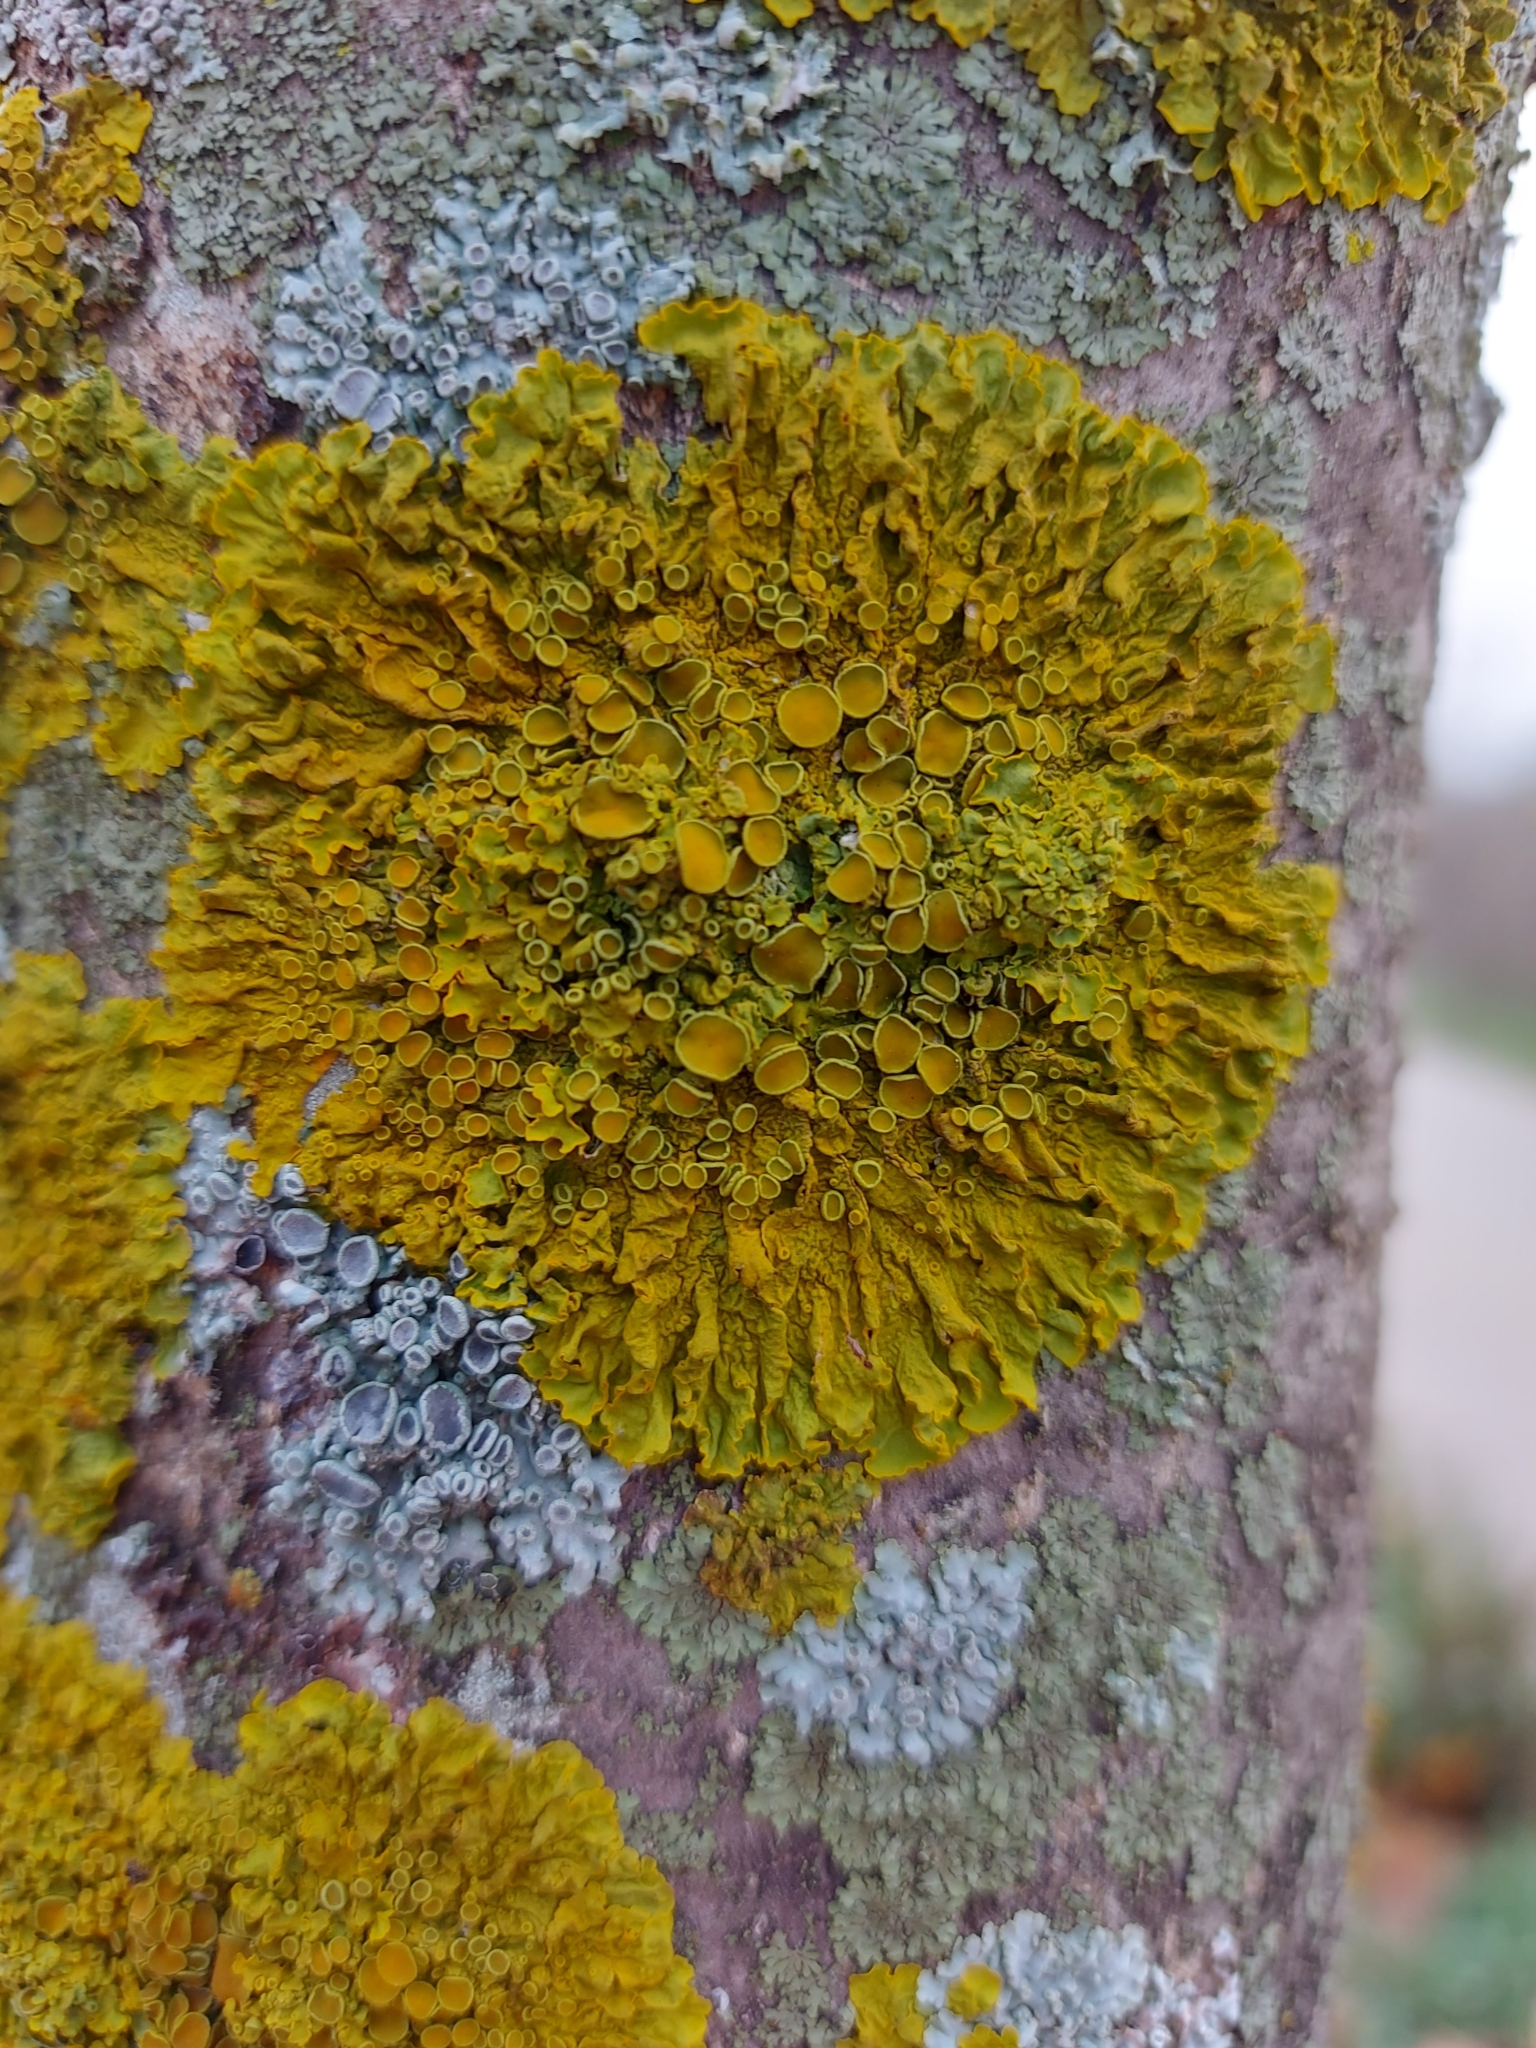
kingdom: Fungi
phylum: Ascomycota
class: Lecanoromycetes
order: Teloschistales
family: Teloschistaceae
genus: Xanthoria
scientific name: Xanthoria parietina
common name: Common orange lichen
